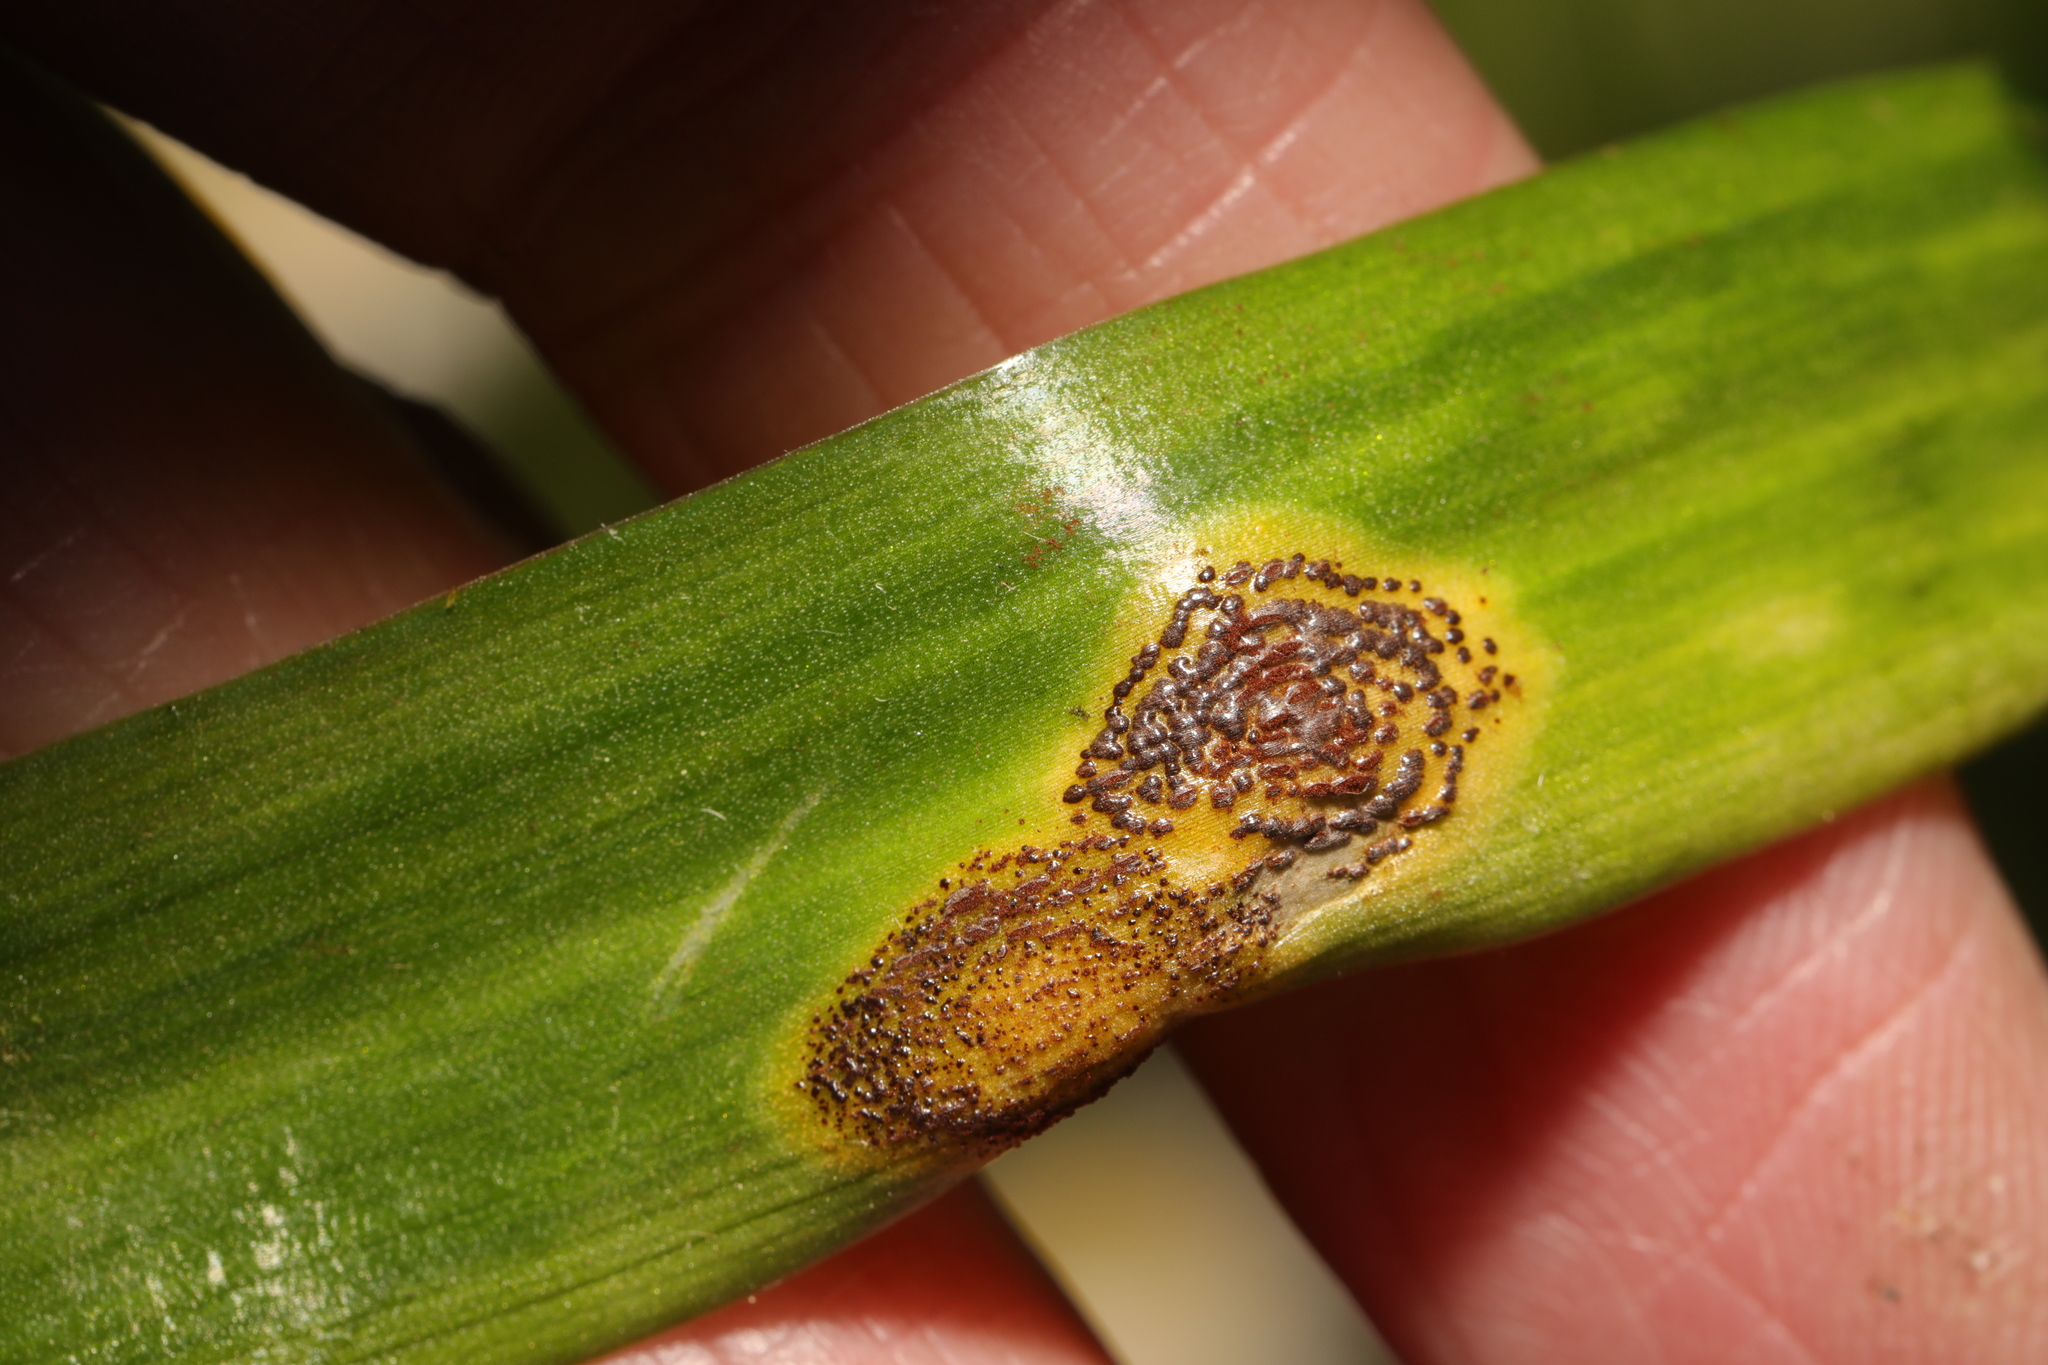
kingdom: Fungi
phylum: Basidiomycota
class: Pucciniomycetes
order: Pucciniales
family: Pucciniaceae
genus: Uromyces
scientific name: Uromyces hyacinthi
